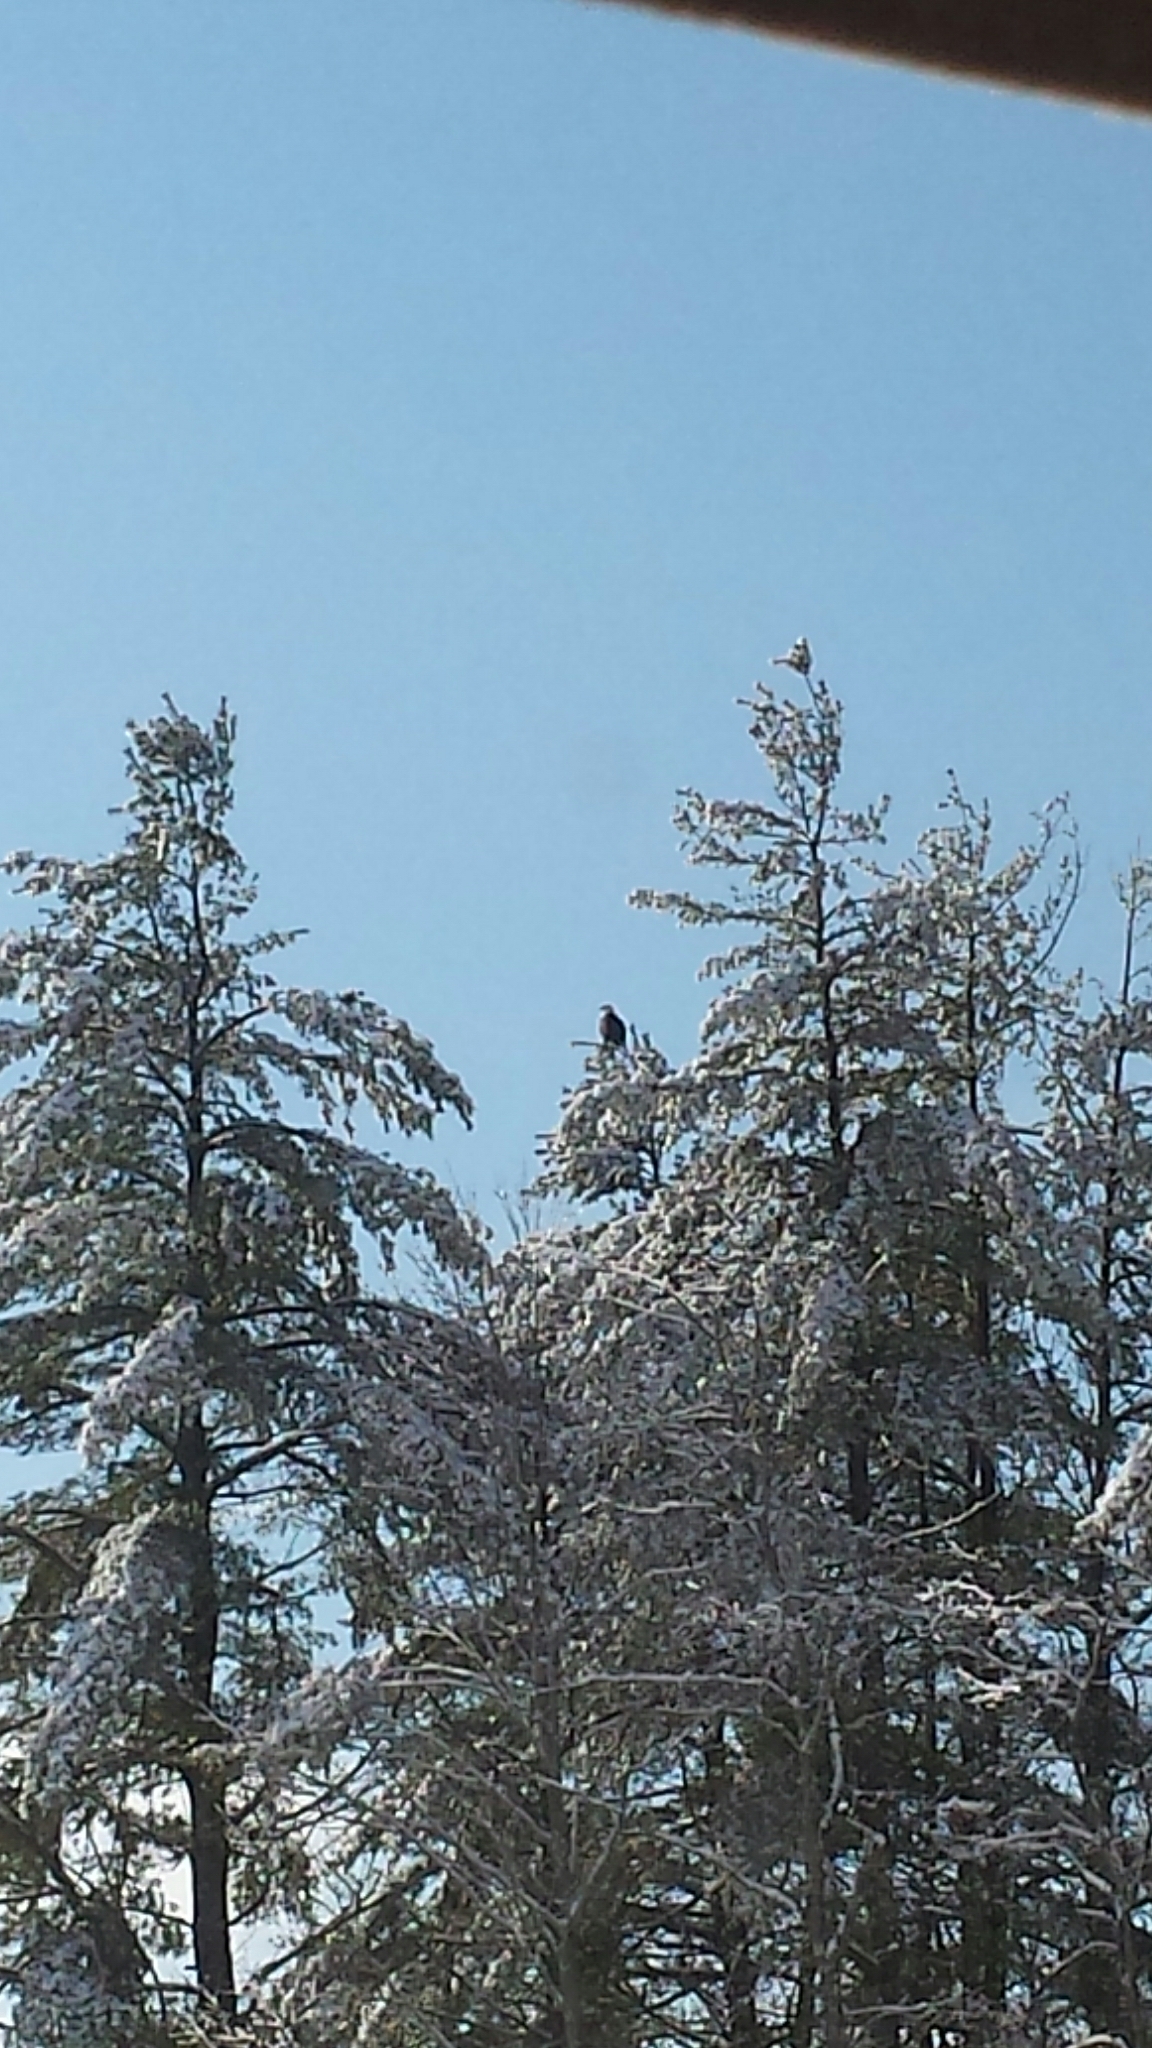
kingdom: Animalia
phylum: Chordata
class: Aves
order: Accipitriformes
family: Accipitridae
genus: Haliaeetus
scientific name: Haliaeetus leucocephalus
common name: Bald eagle
